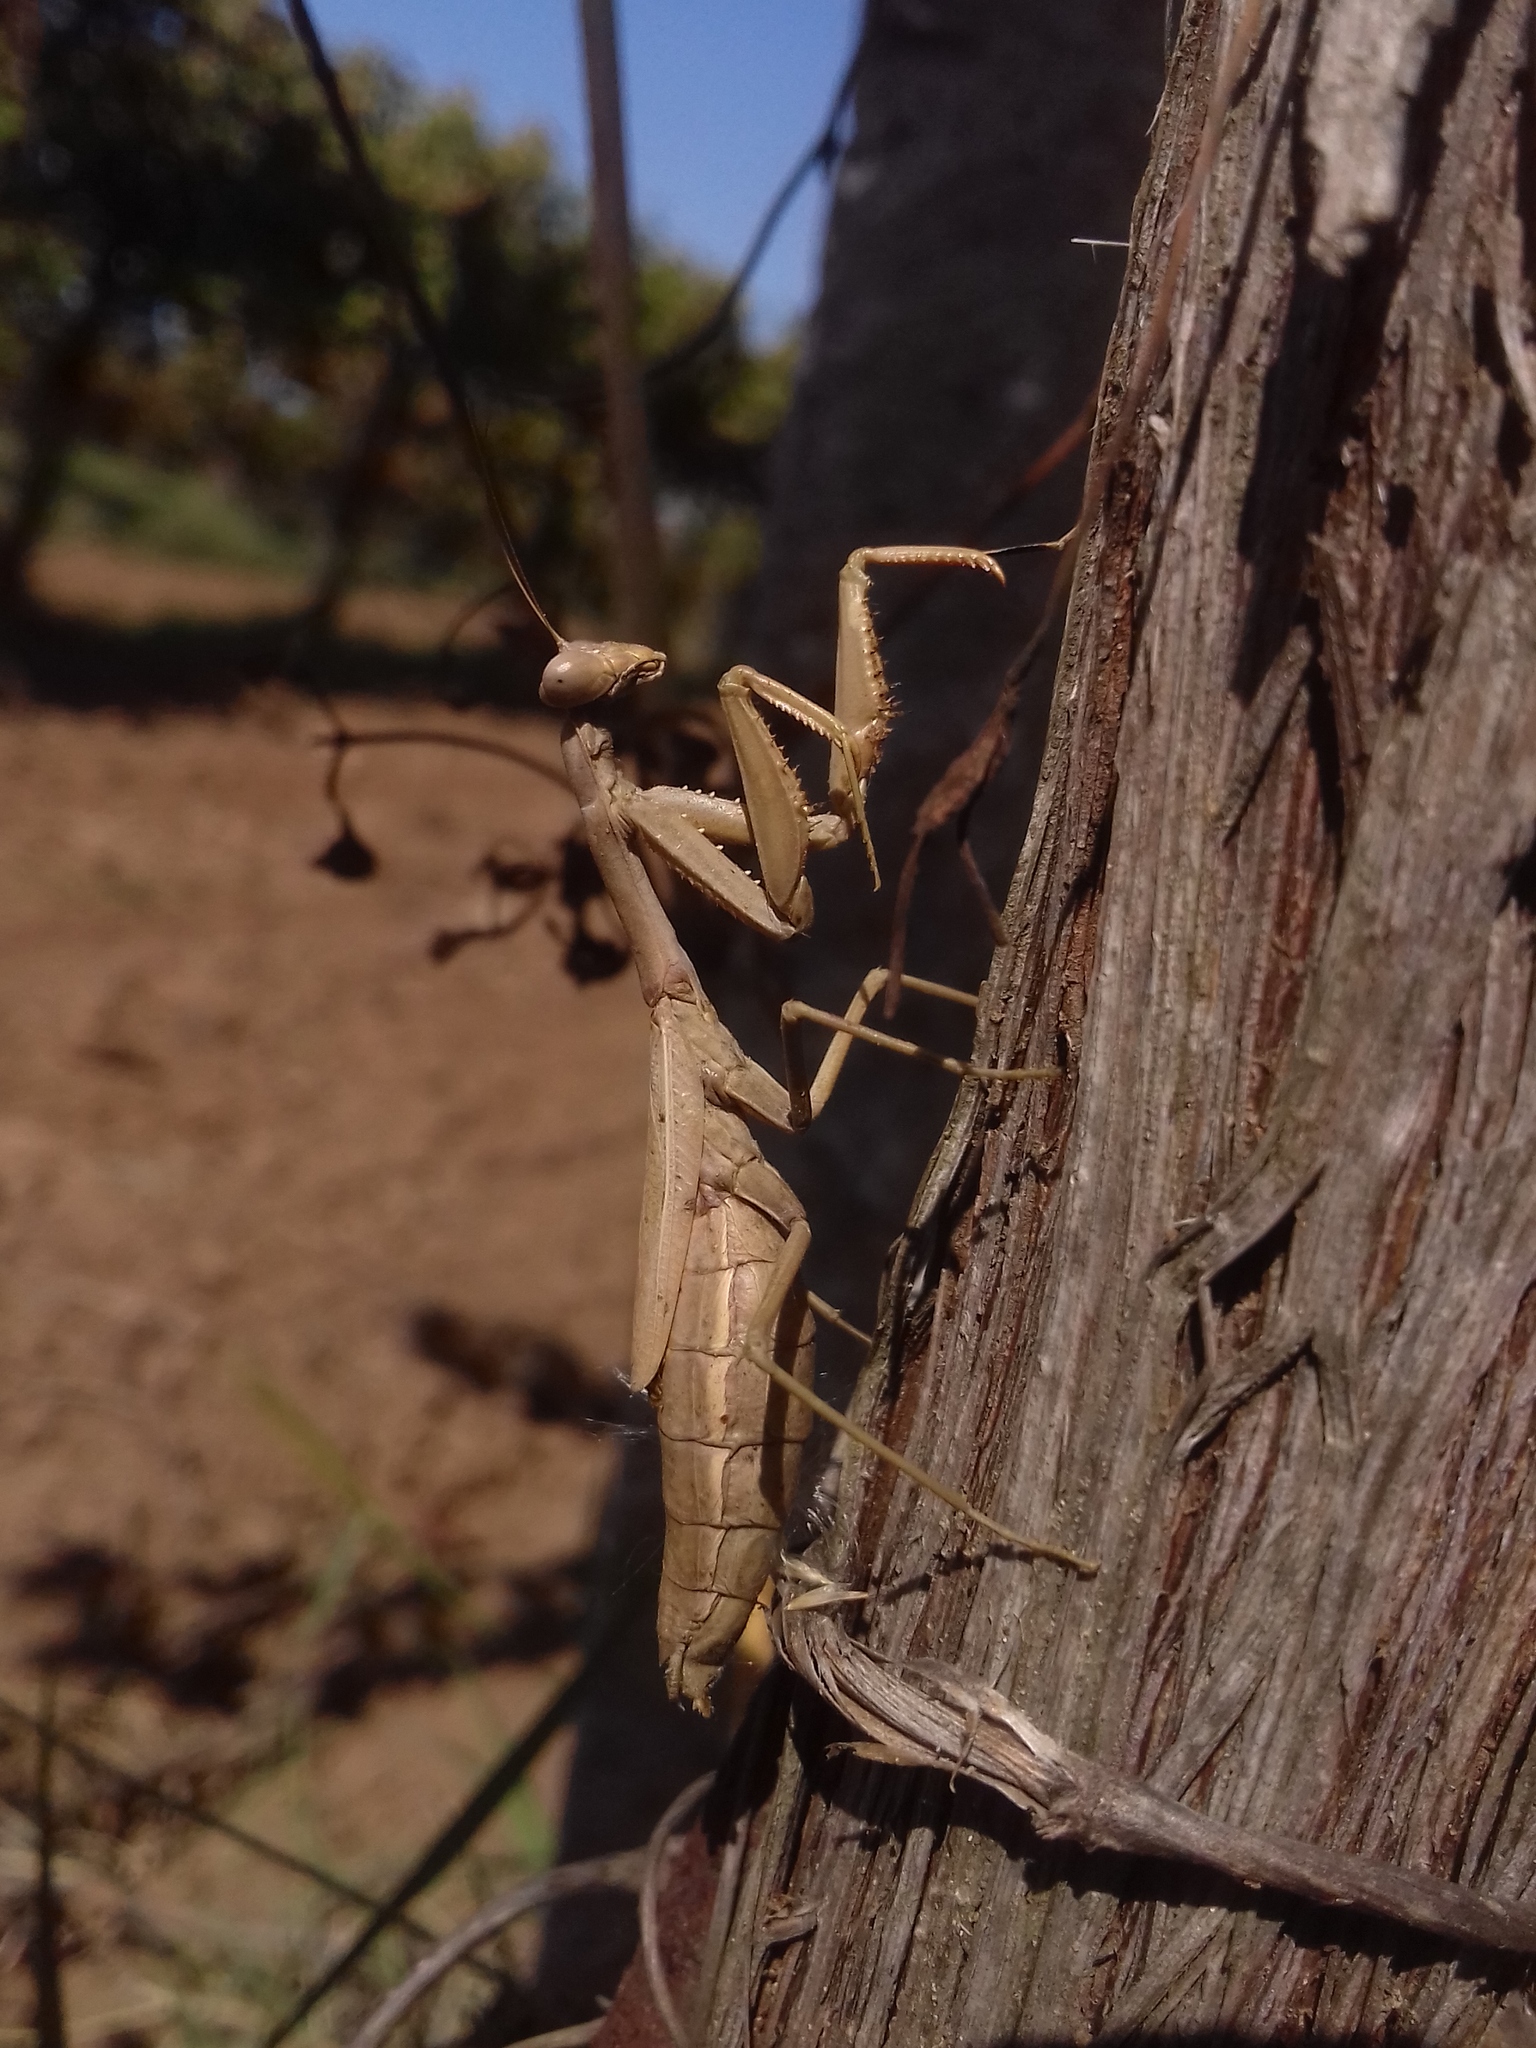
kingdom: Animalia
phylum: Arthropoda
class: Insecta
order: Mantodea
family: Eremiaphilidae
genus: Iris
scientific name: Iris polystictica
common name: Dot-winged mantis
